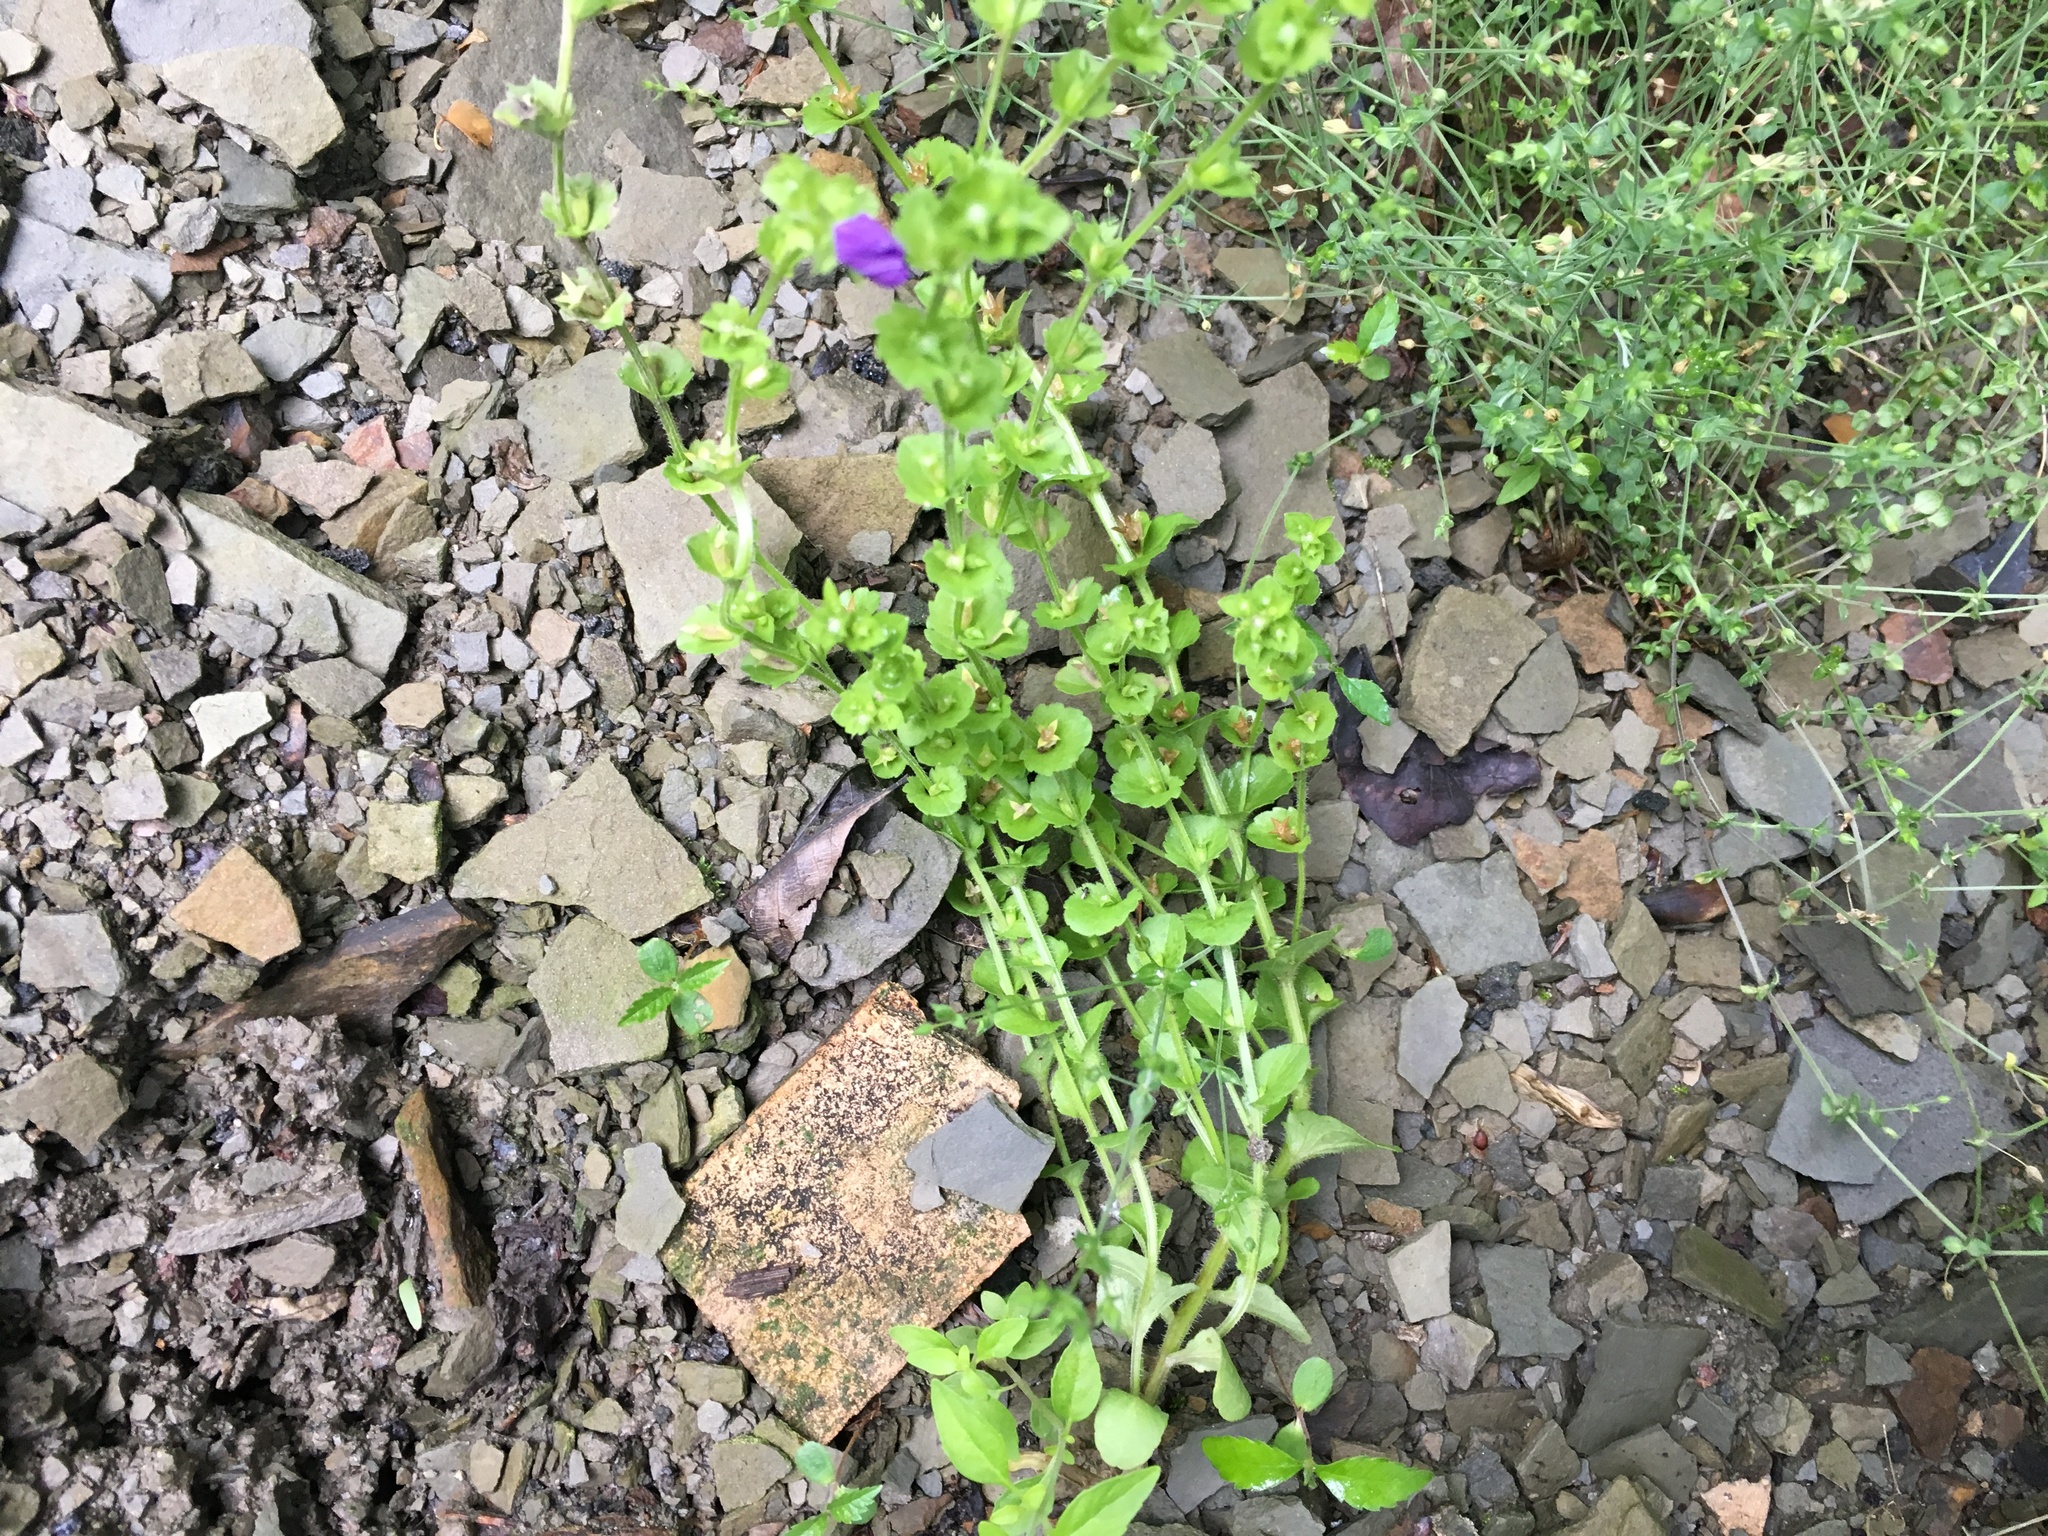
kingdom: Plantae
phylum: Tracheophyta
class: Magnoliopsida
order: Asterales
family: Campanulaceae
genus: Triodanis
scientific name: Triodanis perfoliata
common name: Clasping venus' looking-glass
